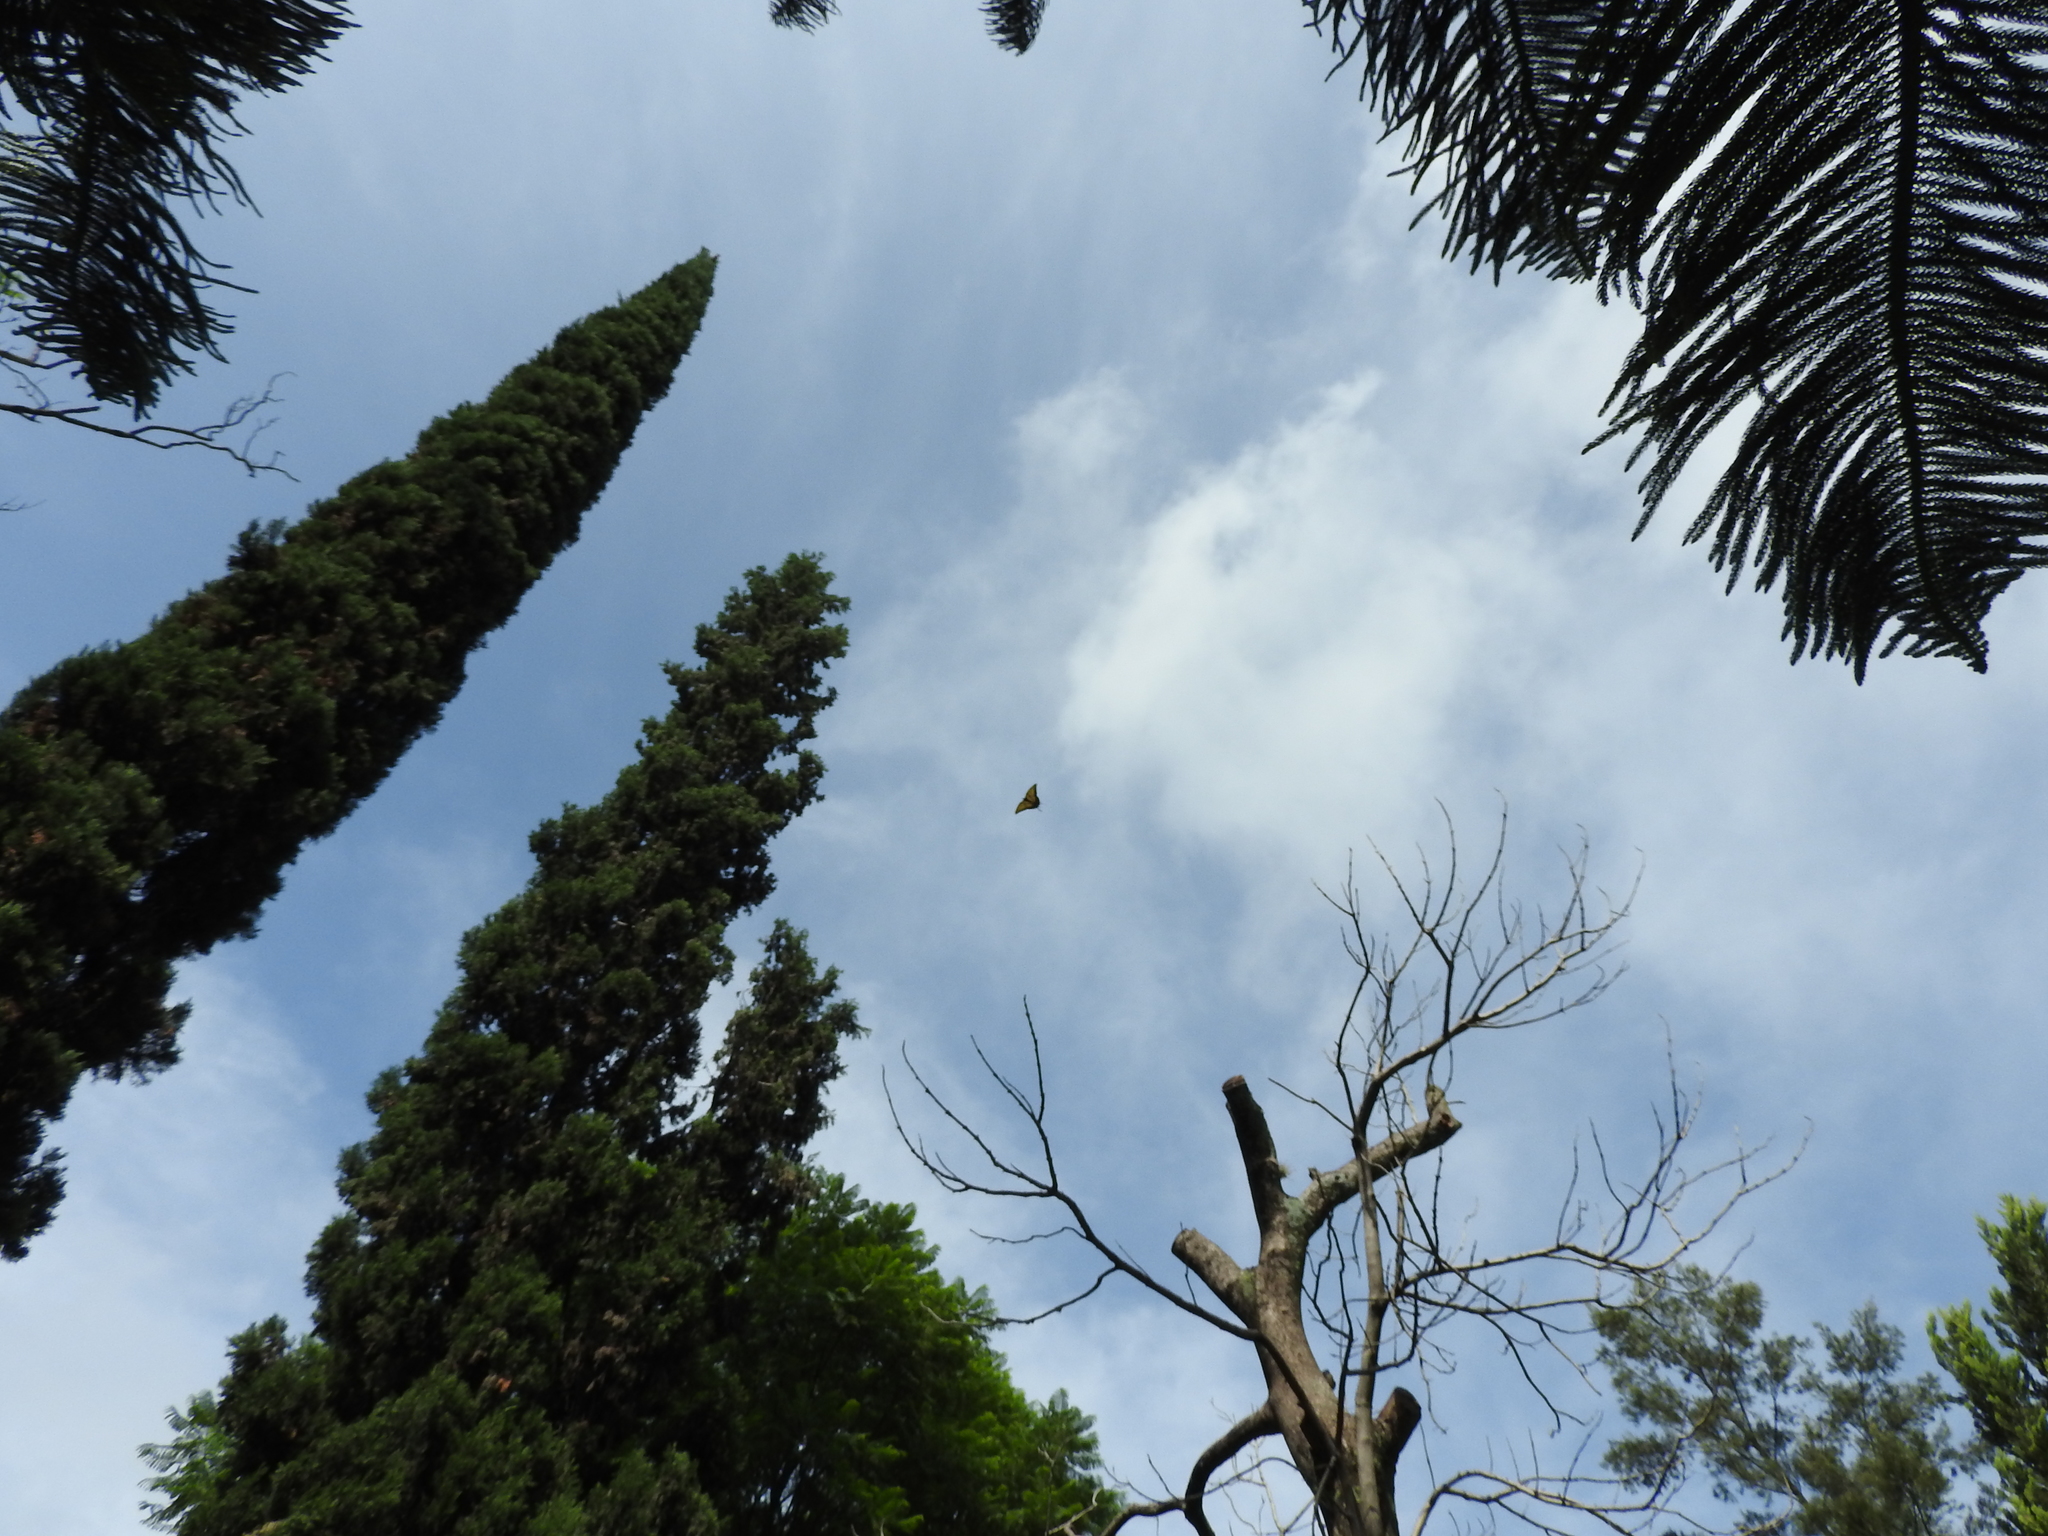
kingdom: Animalia
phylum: Arthropoda
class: Insecta
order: Lepidoptera
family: Papilionidae
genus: Papilio
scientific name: Papilio multicaudata
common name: Two-tailed tiger swallowtail
